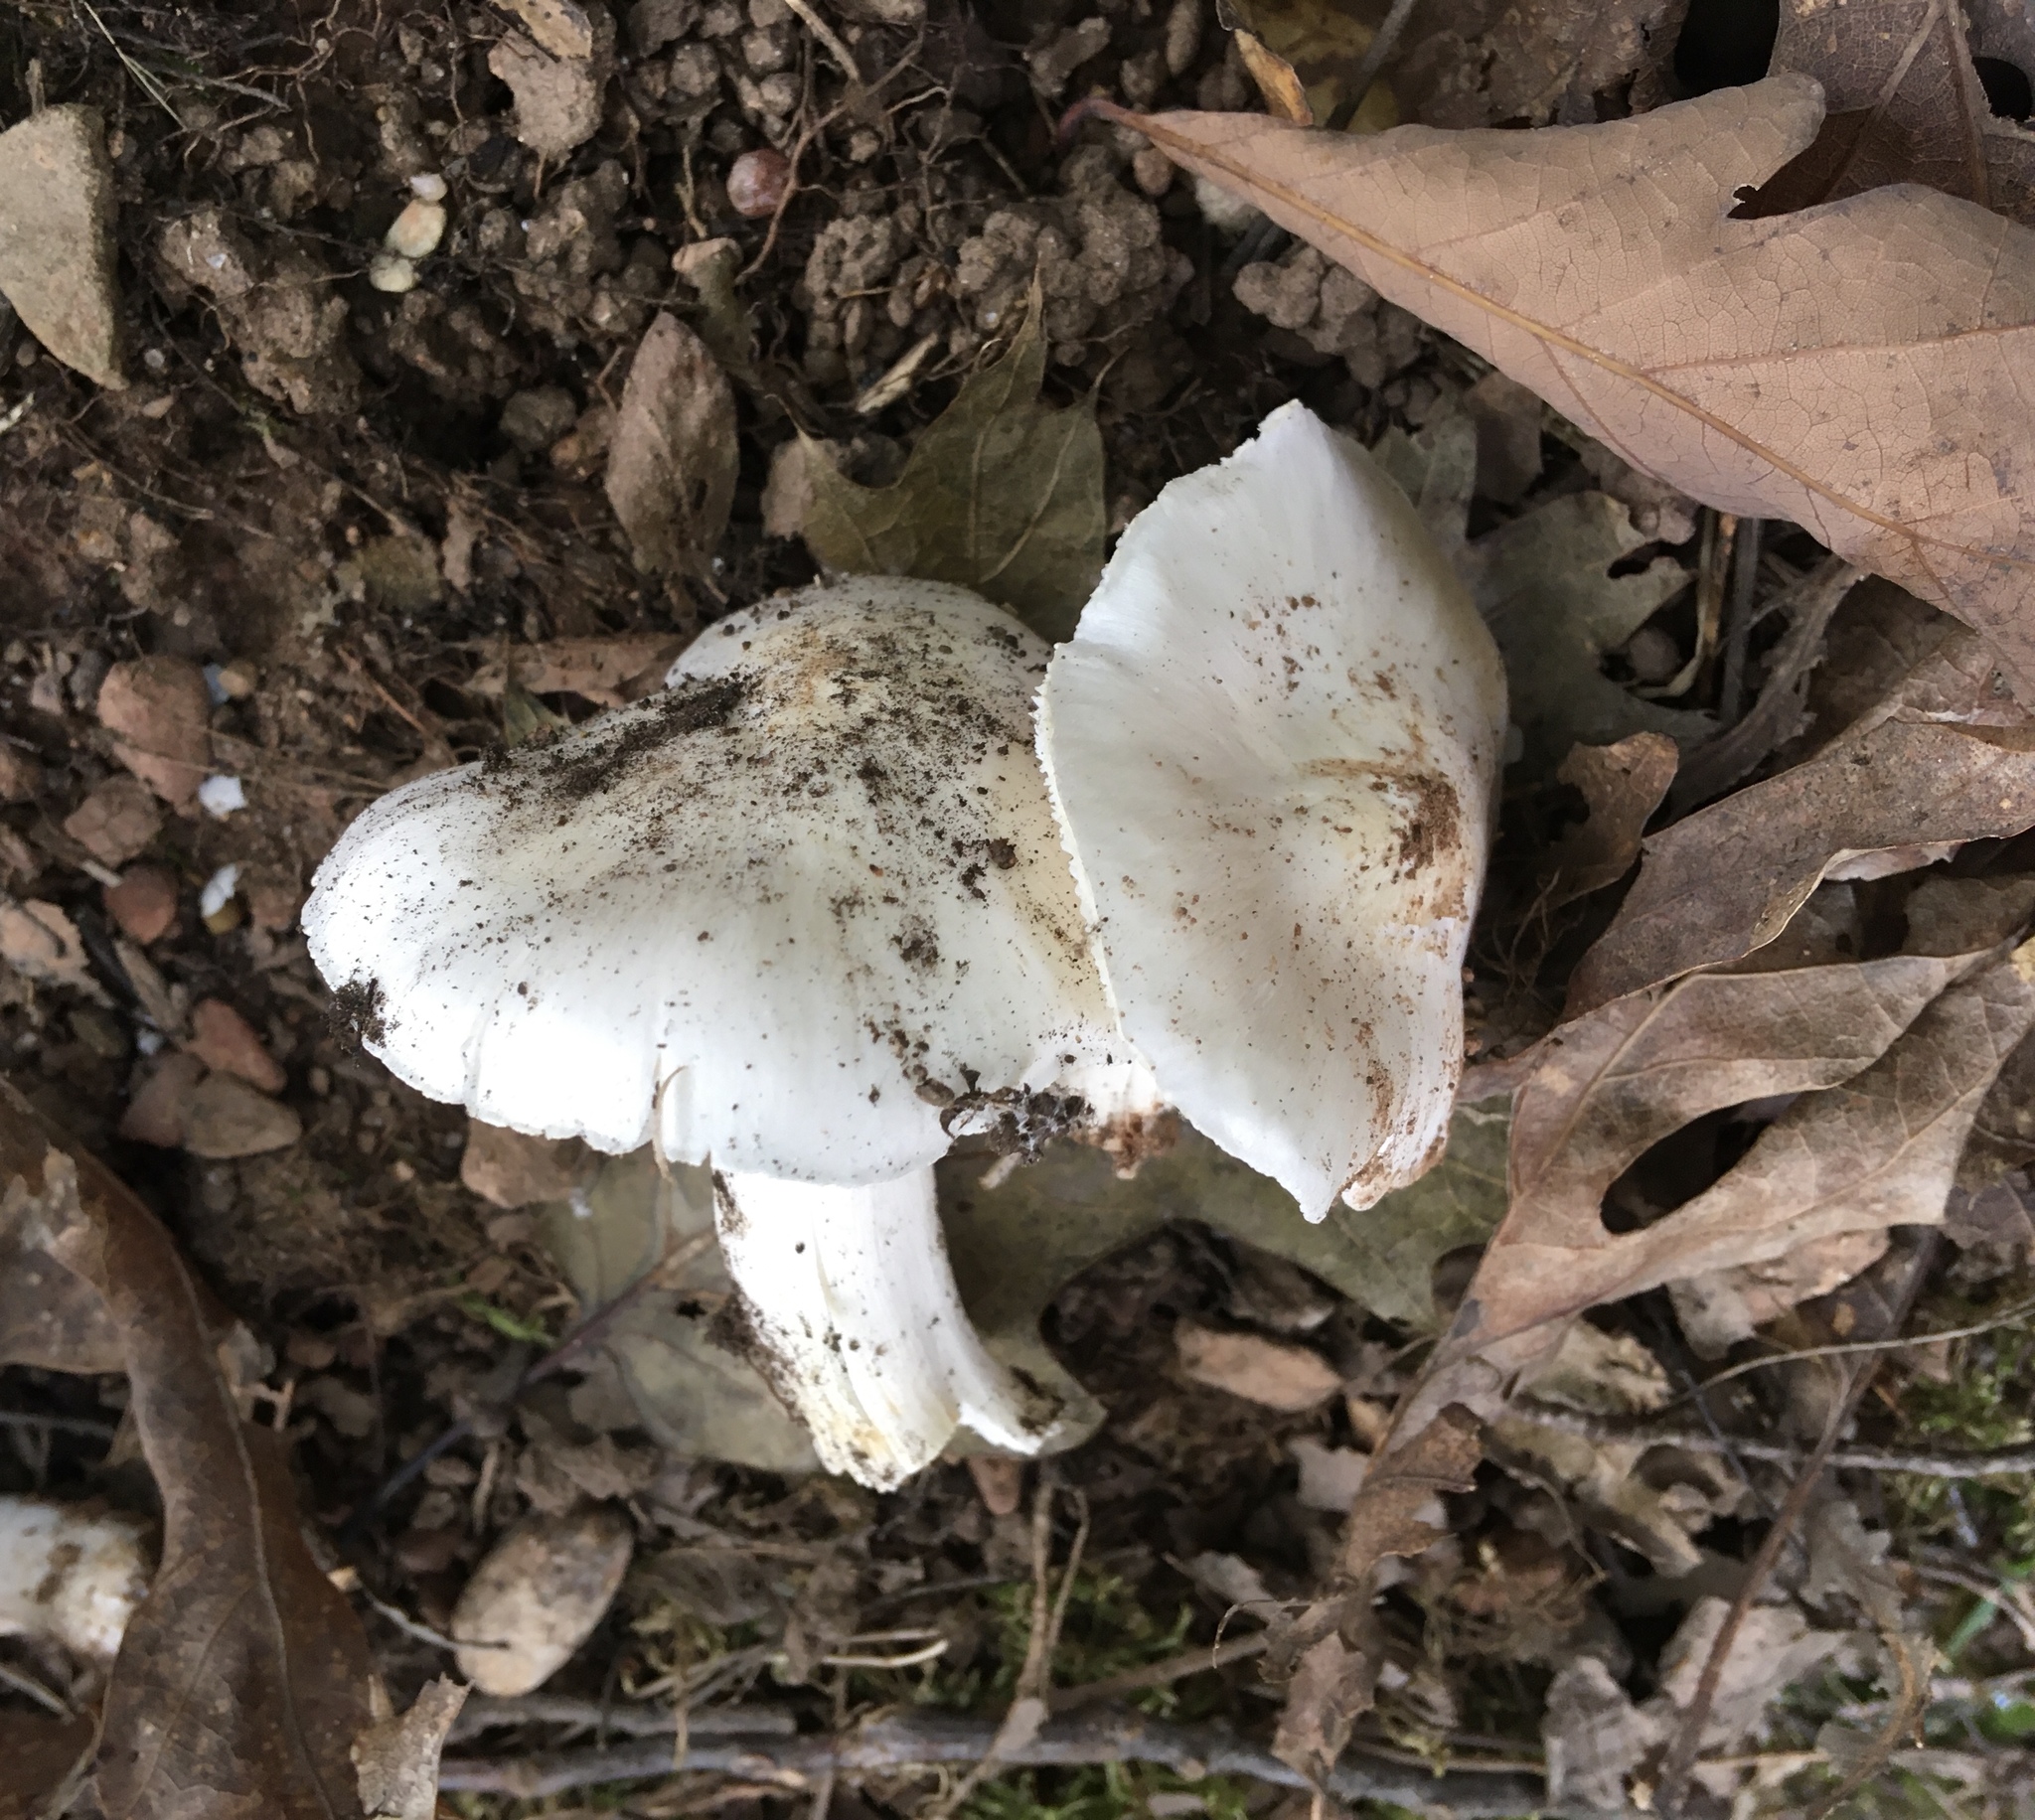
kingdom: Fungi
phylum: Basidiomycota
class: Agaricomycetes
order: Agaricales
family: Tricholomataceae
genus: Tricholoma
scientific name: Tricholoma columbetta
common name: Blue spot knight
